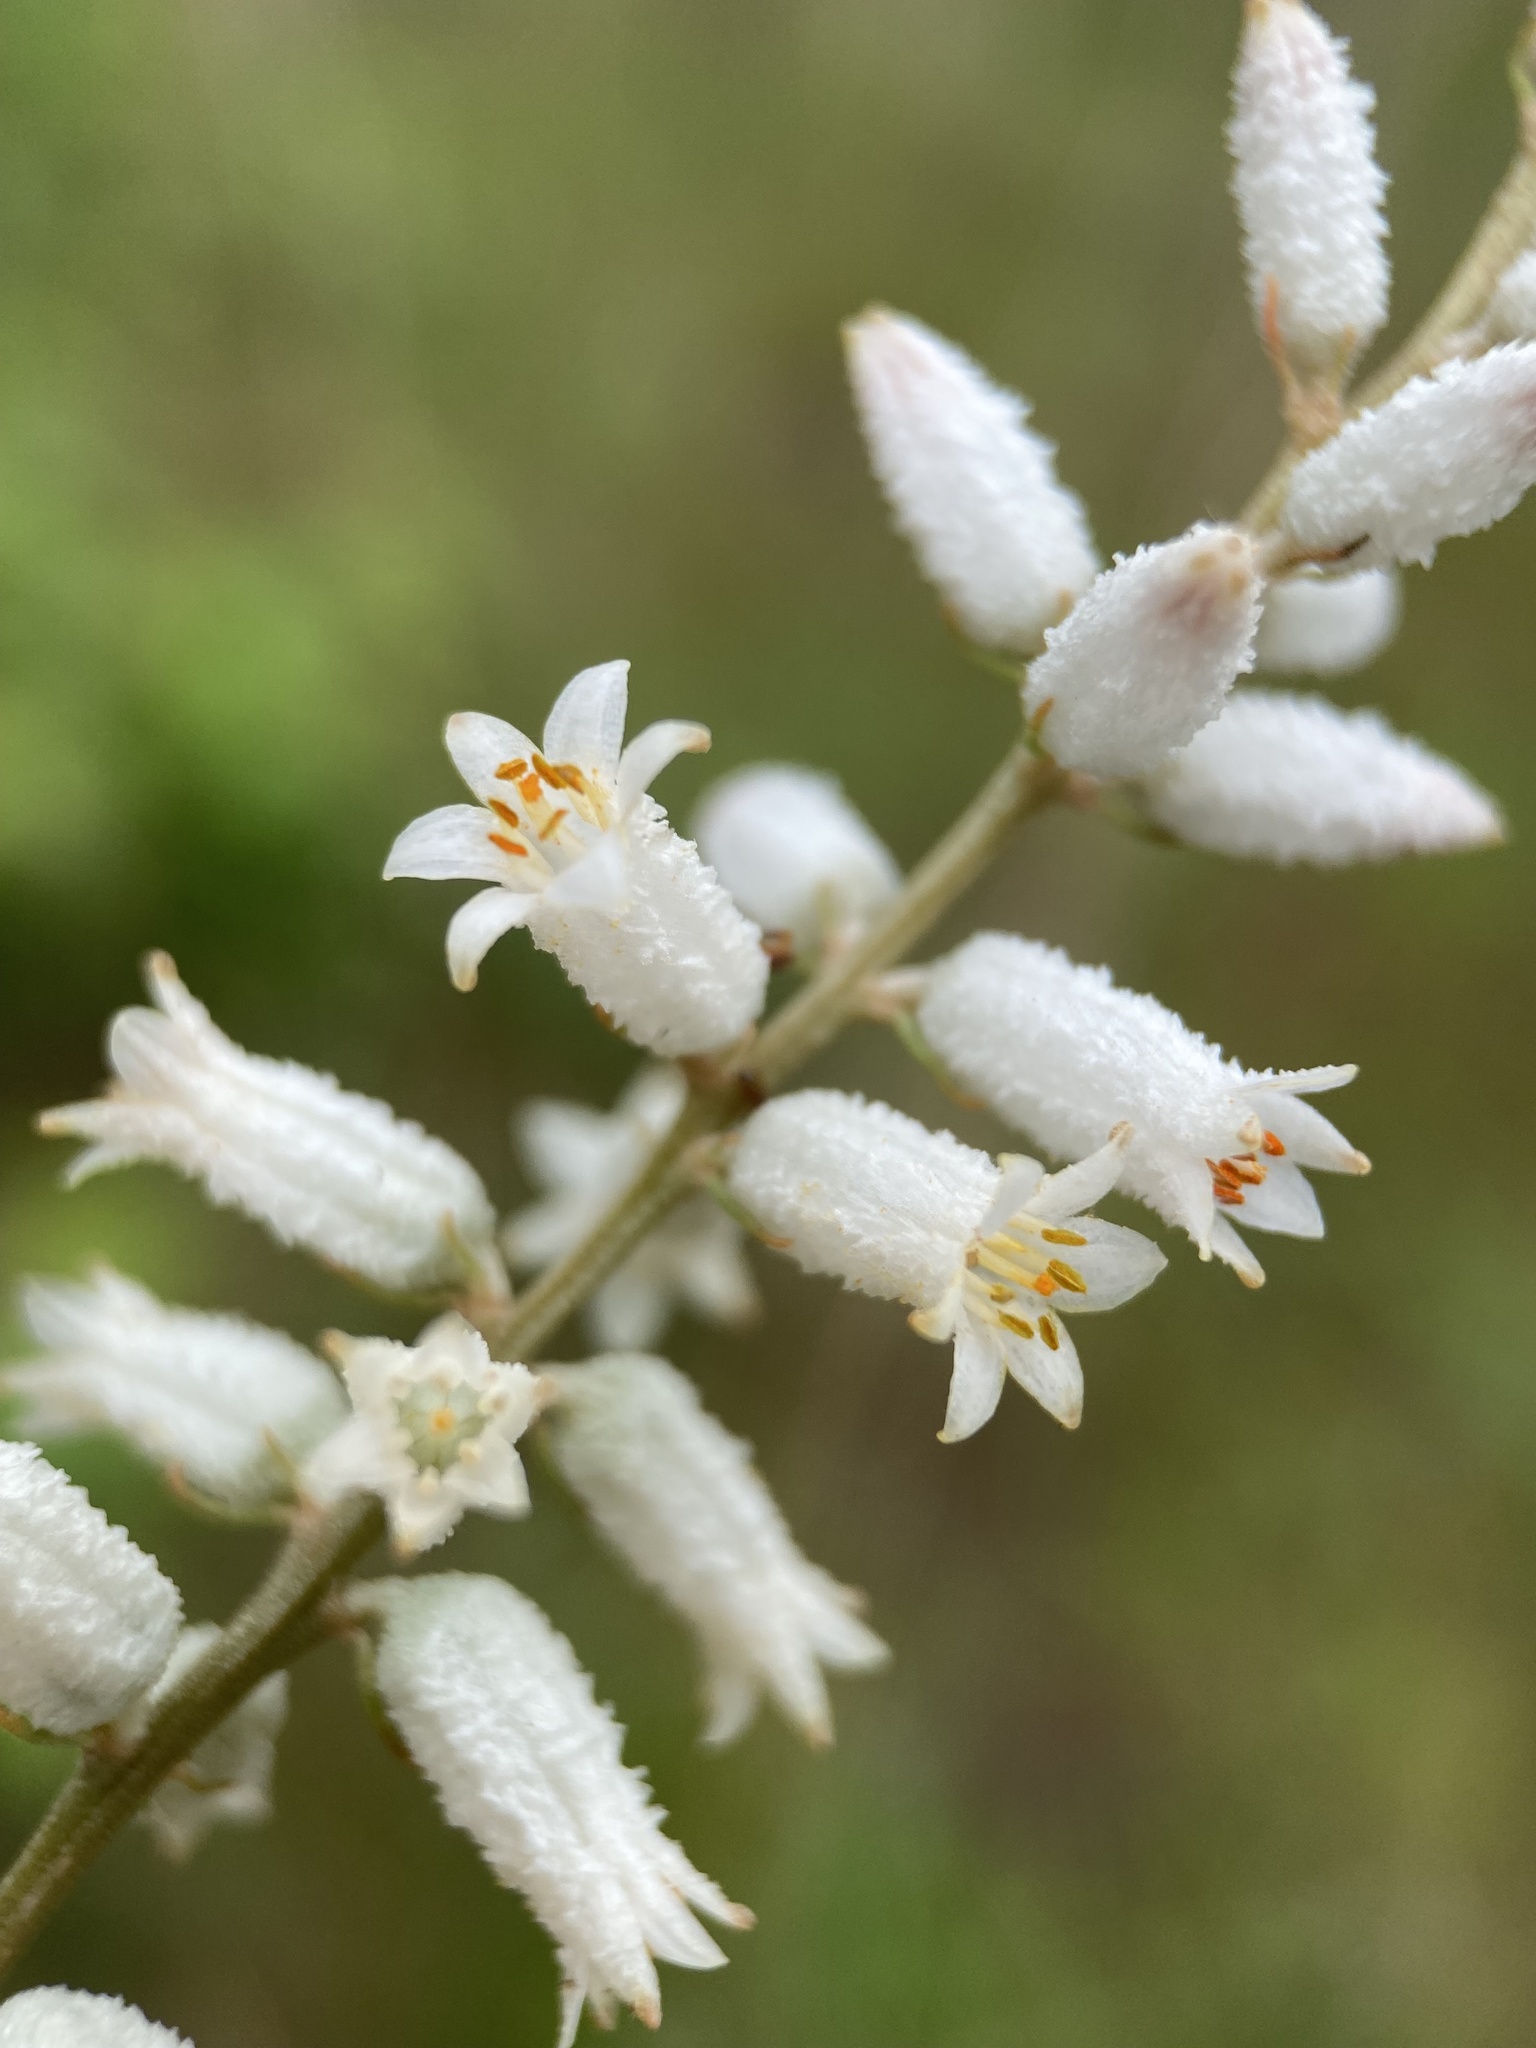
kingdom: Plantae
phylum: Tracheophyta
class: Liliopsida
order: Dioscoreales
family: Nartheciaceae
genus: Aletris
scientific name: Aletris farinosa
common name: Colicroot
